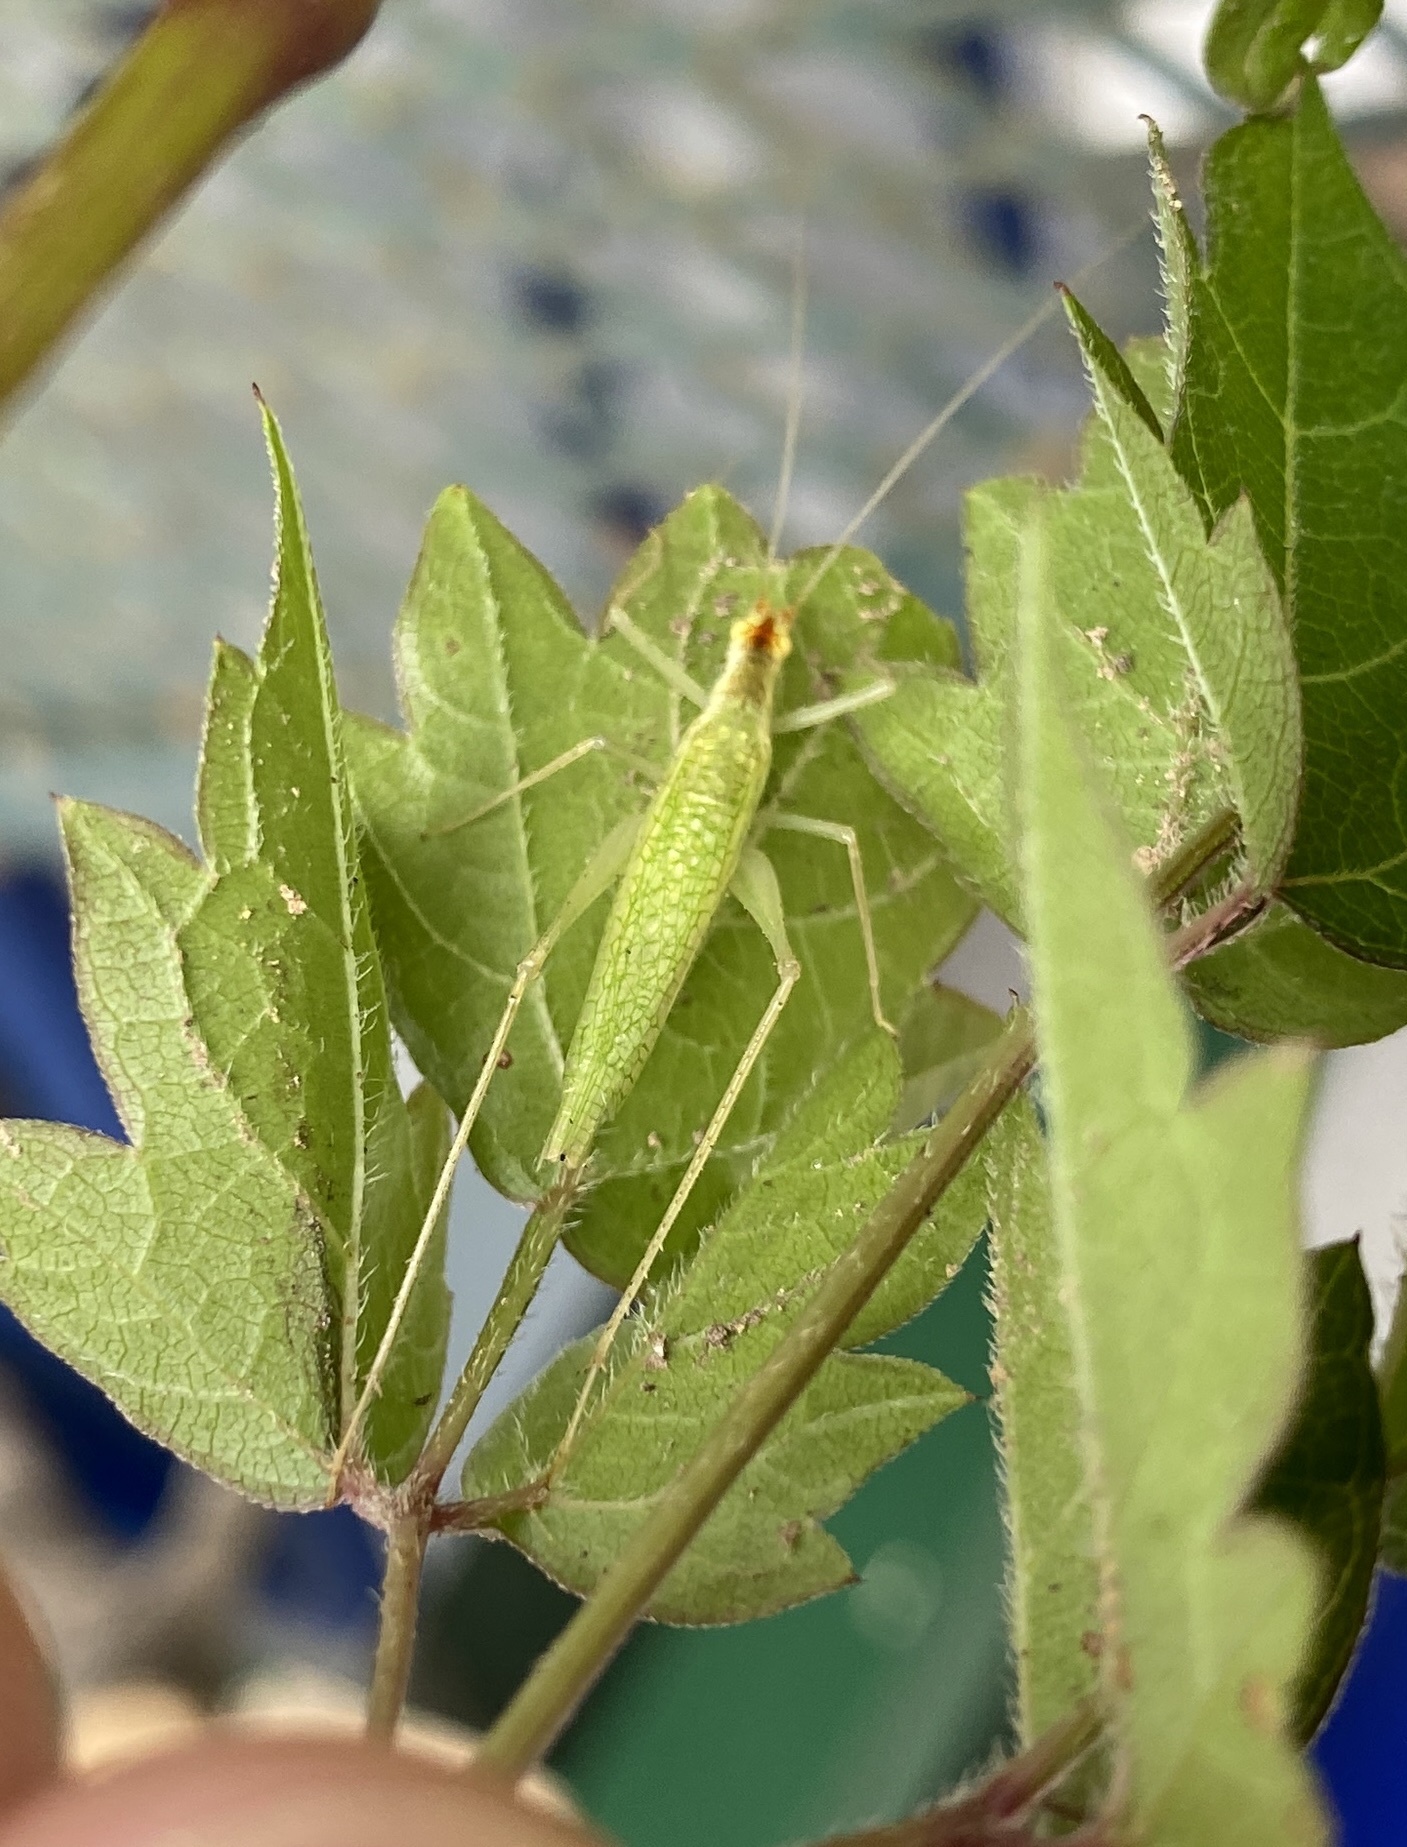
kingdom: Animalia
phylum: Arthropoda
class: Insecta
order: Orthoptera
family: Gryllidae
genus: Oecanthus
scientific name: Oecanthus niveus
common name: Narrow-winged tree cricket
